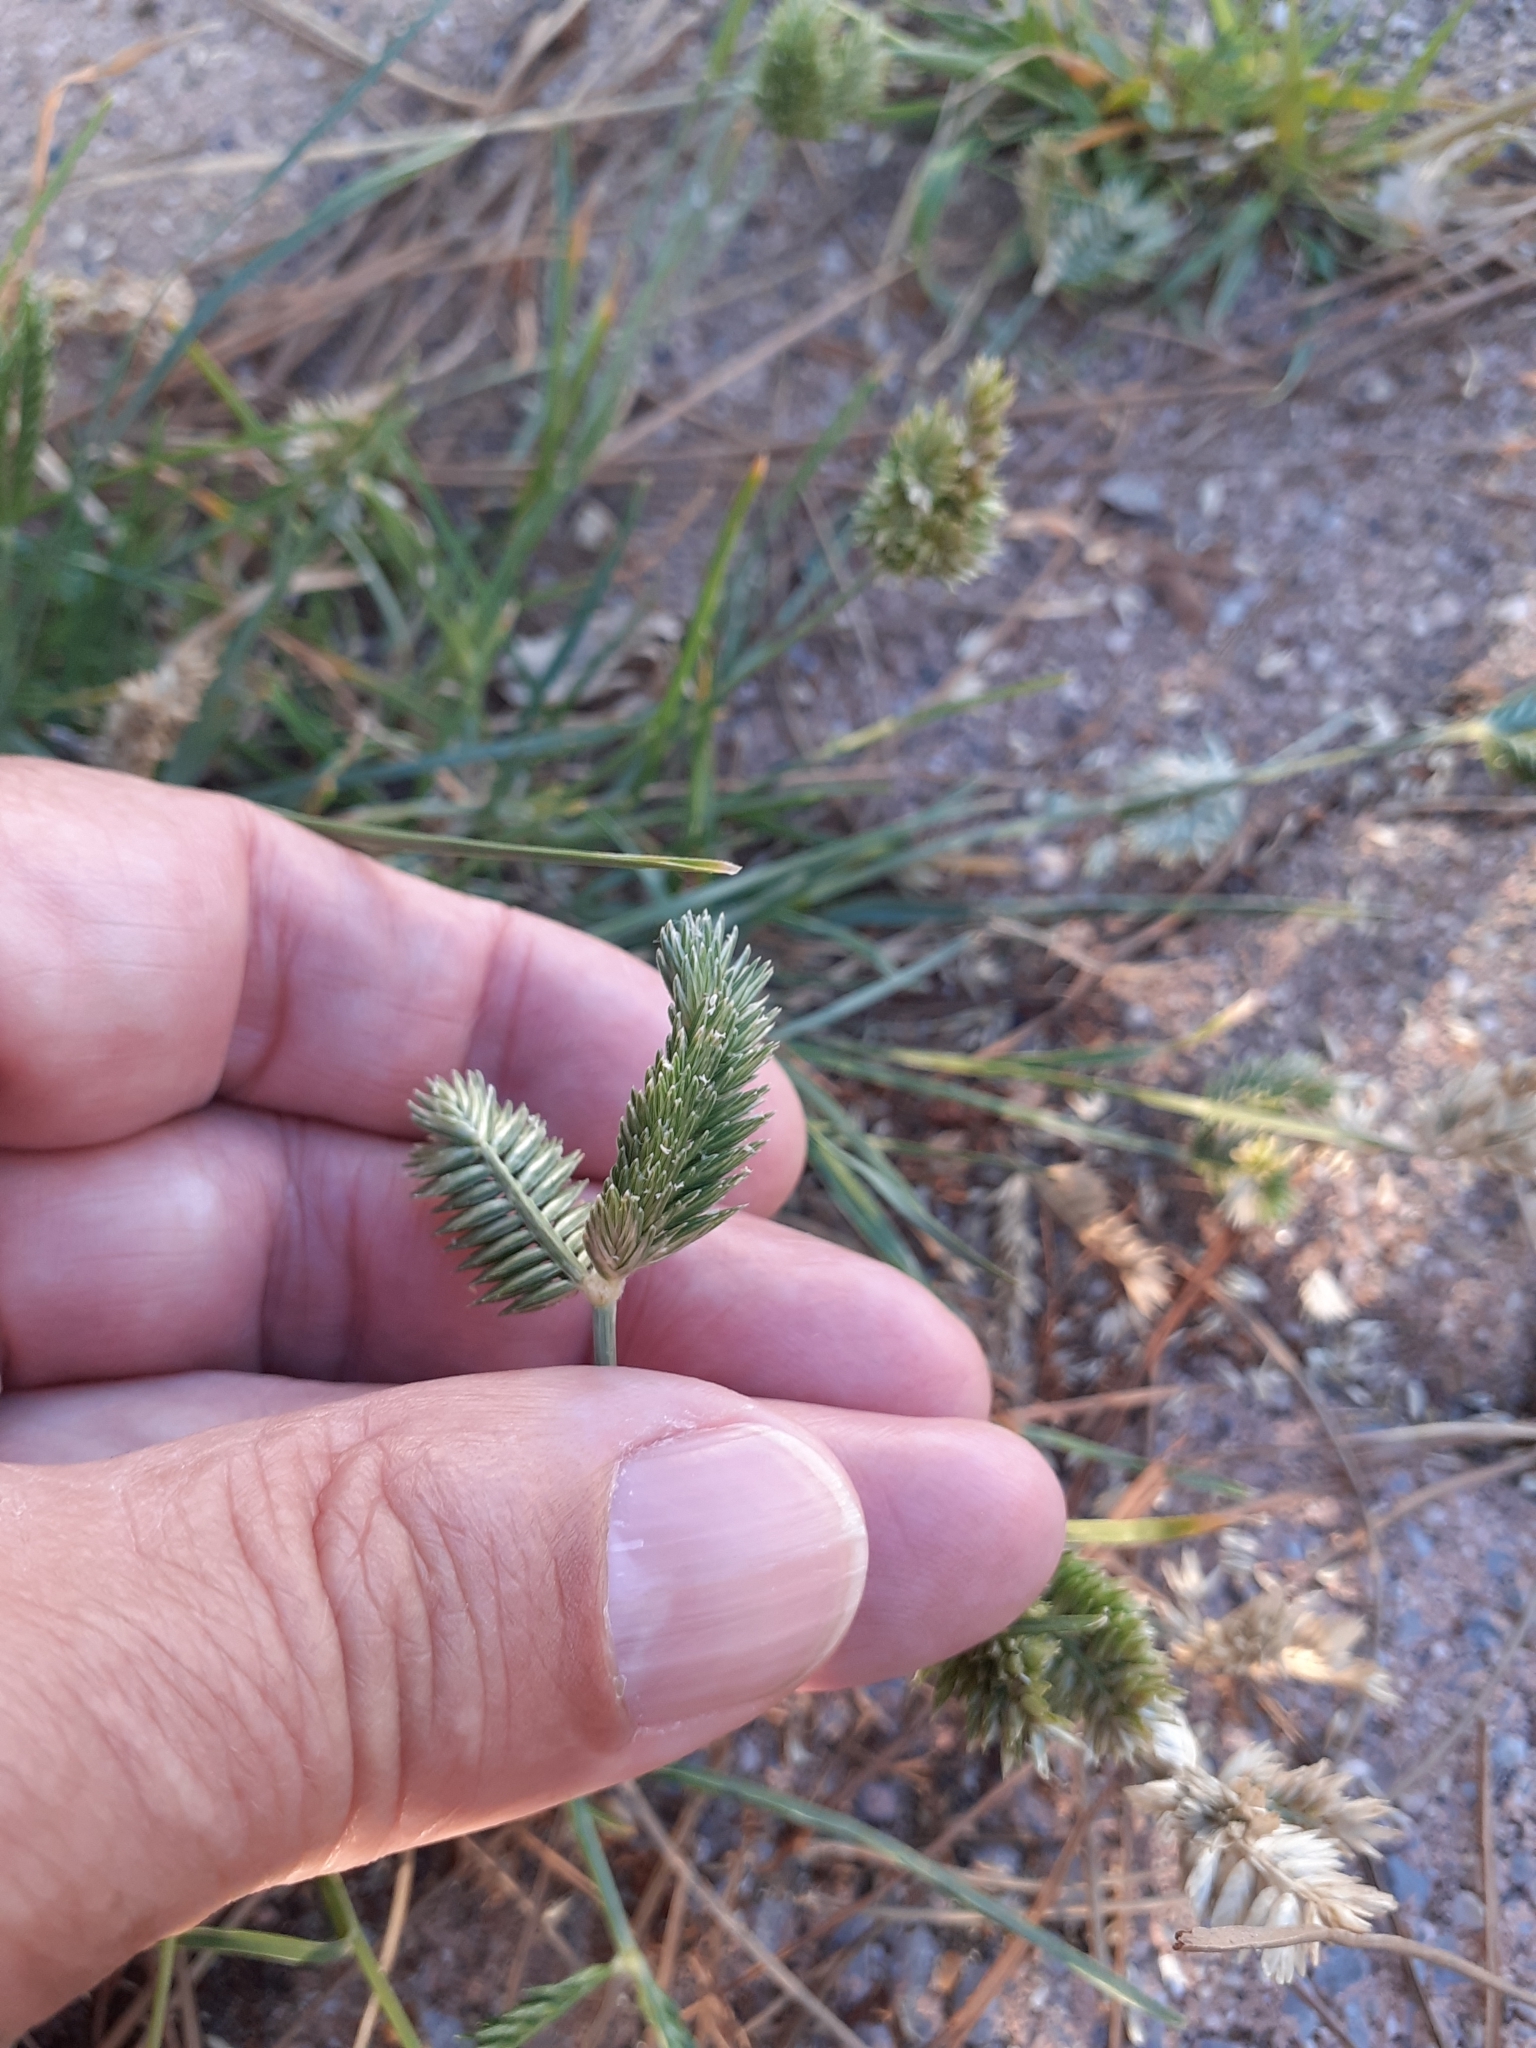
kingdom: Plantae
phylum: Tracheophyta
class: Liliopsida
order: Poales
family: Poaceae
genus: Eleusine
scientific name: Eleusine tristachya
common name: American yard-grass
